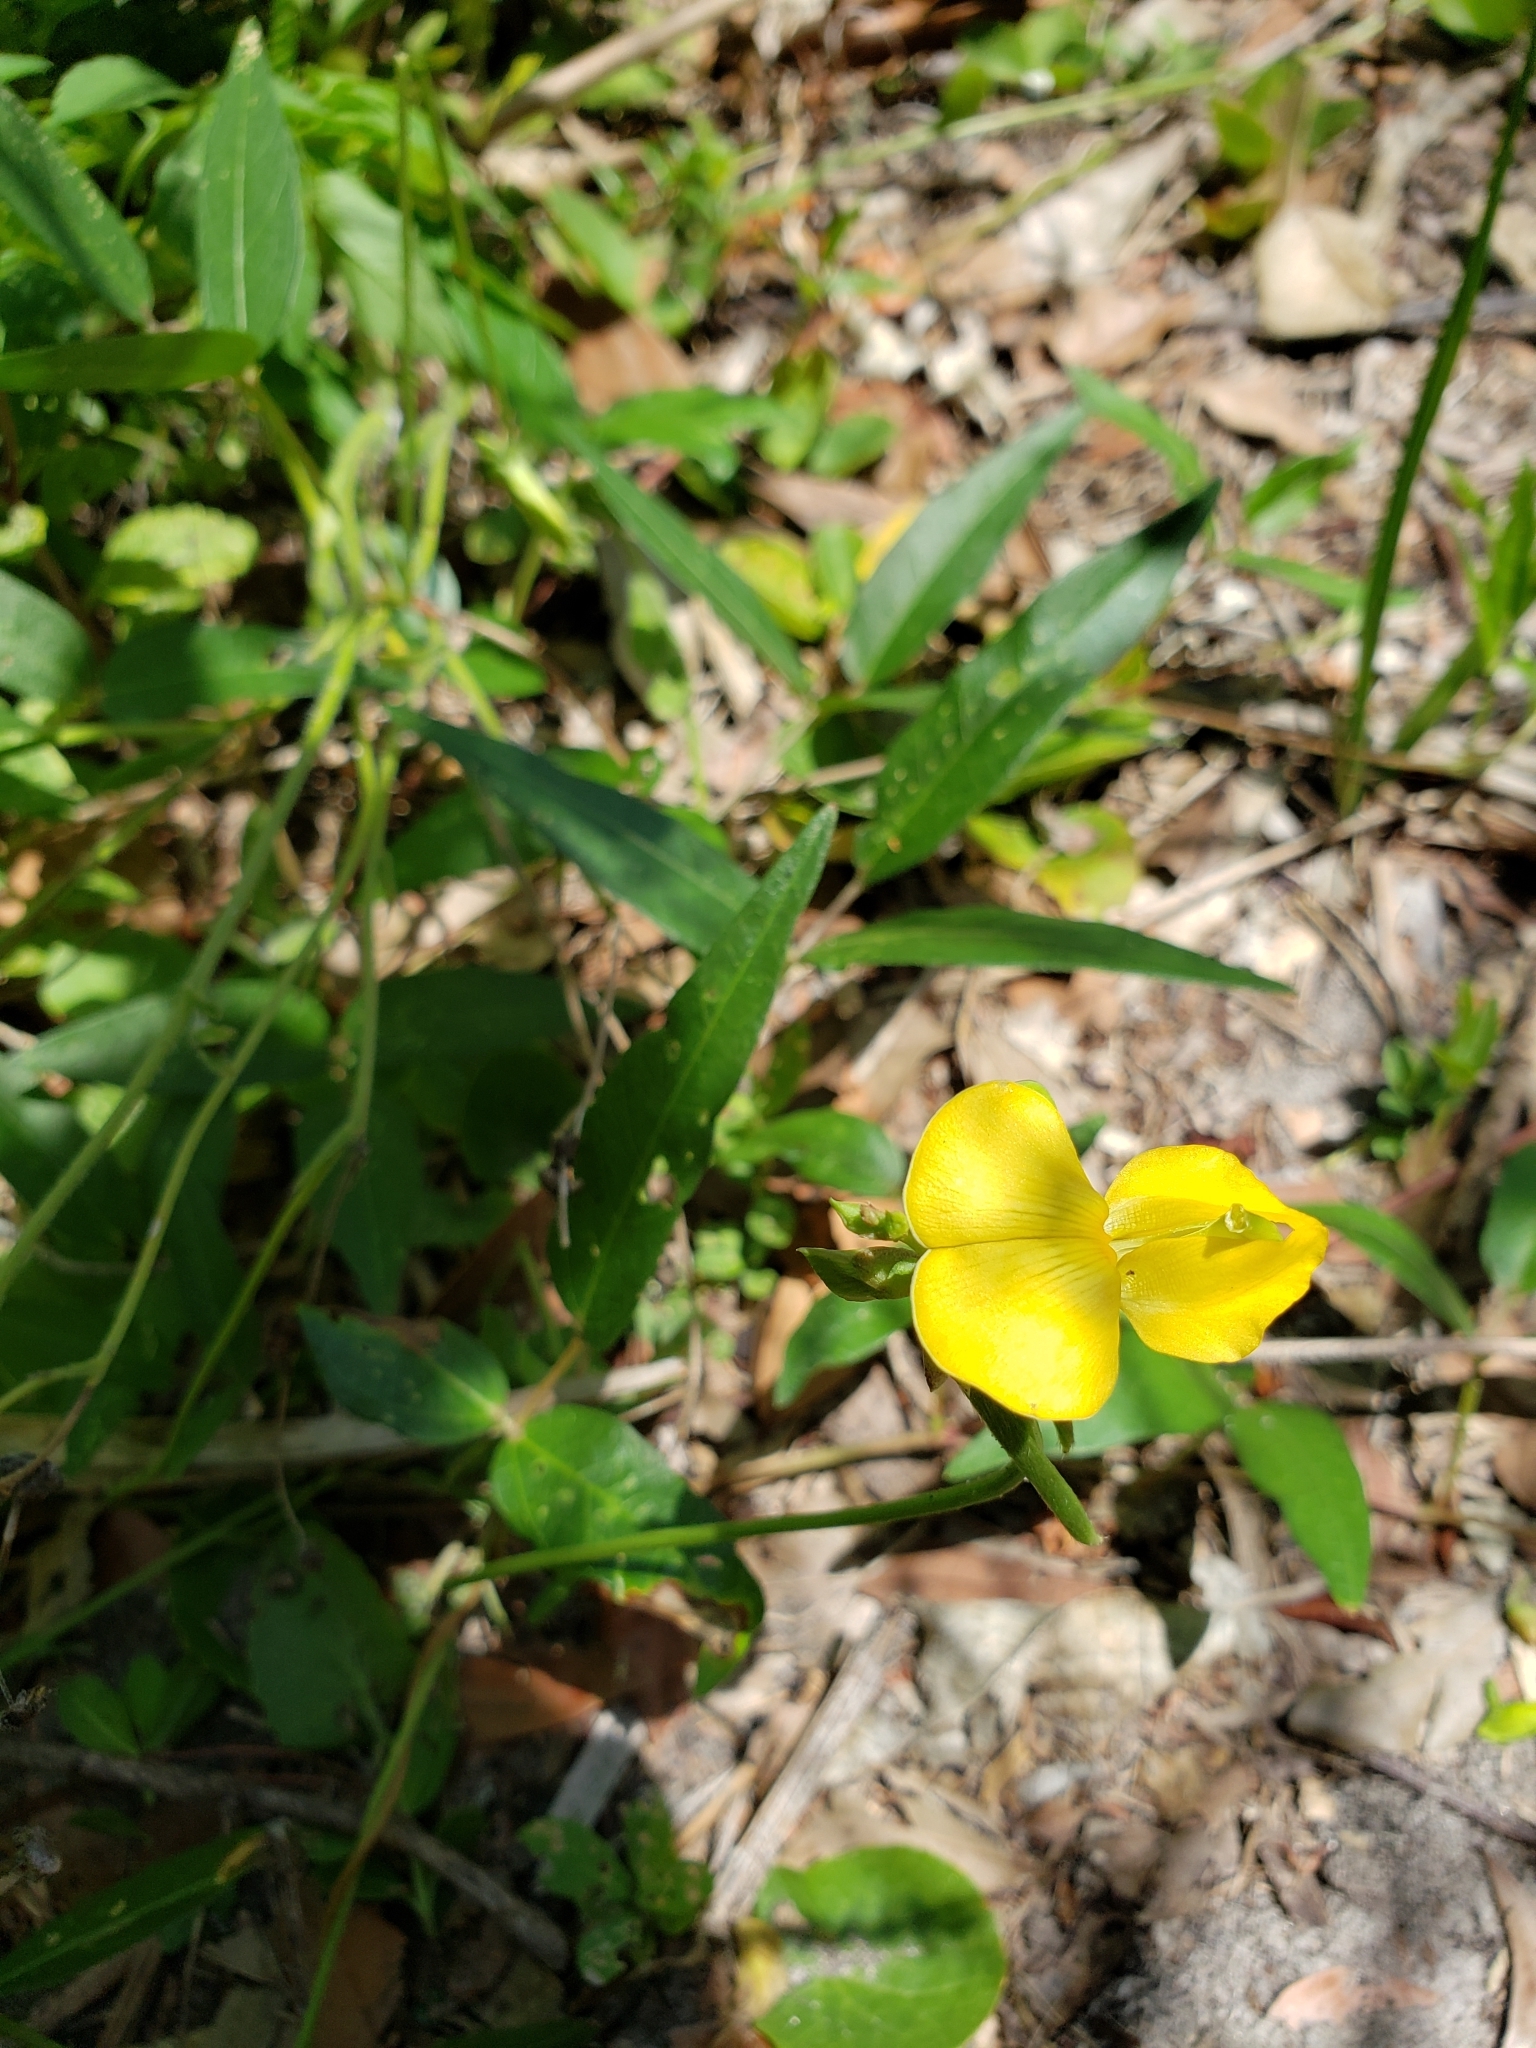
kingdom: Plantae
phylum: Tracheophyta
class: Magnoliopsida
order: Fabales
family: Fabaceae
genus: Vigna
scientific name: Vigna luteola
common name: Hairypod cowpea
